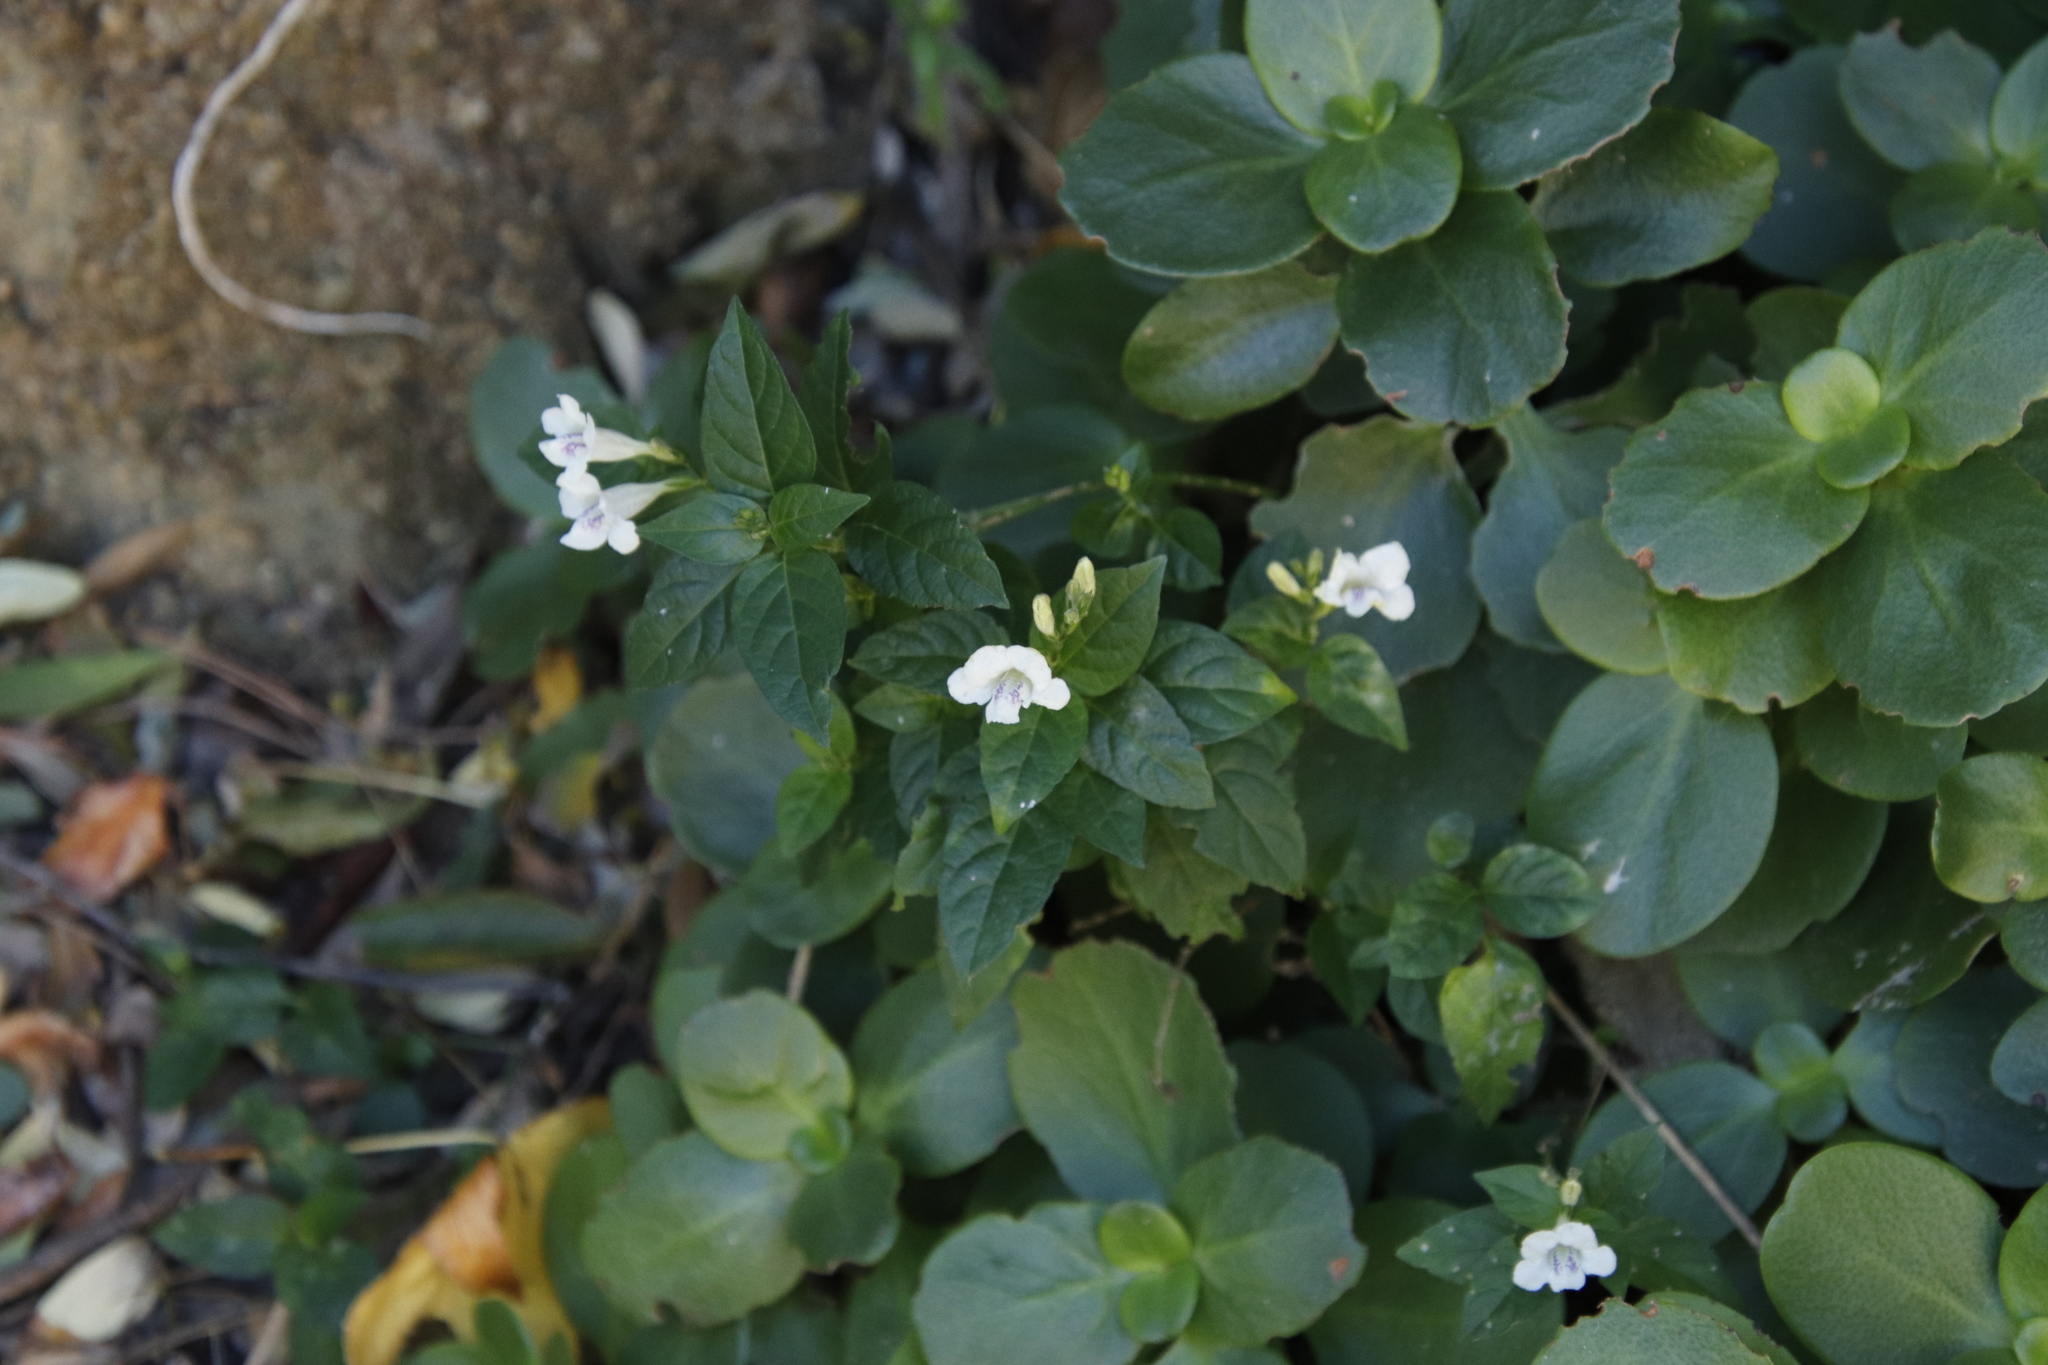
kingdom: Plantae
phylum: Tracheophyta
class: Magnoliopsida
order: Lamiales
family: Acanthaceae
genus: Asystasia
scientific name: Asystasia intrusa
